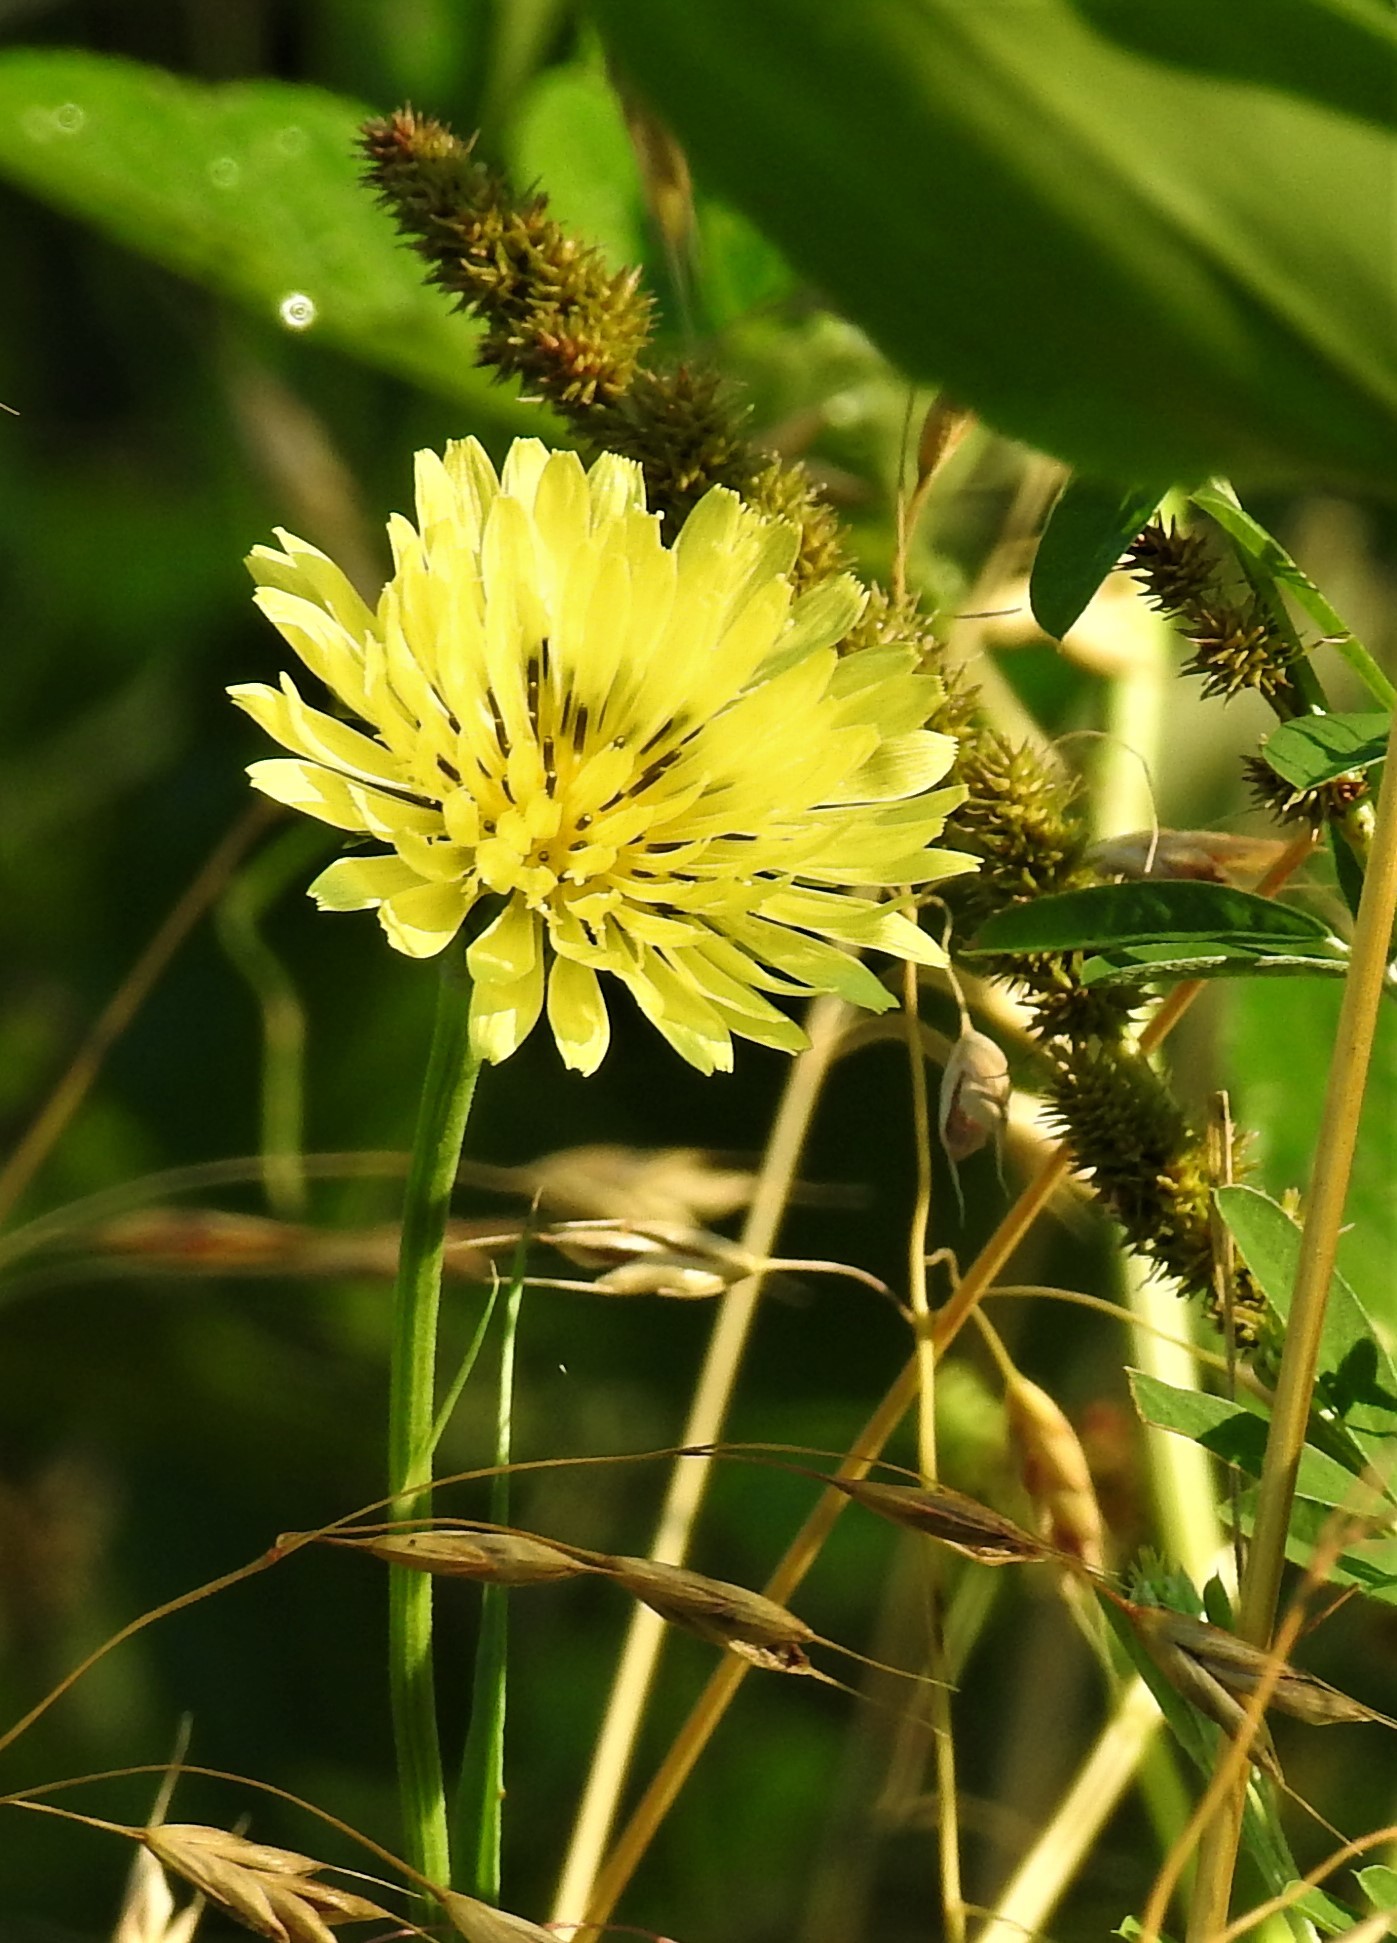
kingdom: Plantae
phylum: Tracheophyta
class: Magnoliopsida
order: Asterales
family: Asteraceae
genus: Pyrrhopappus
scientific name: Pyrrhopappus carolinianus
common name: Carolina desert-chicory
